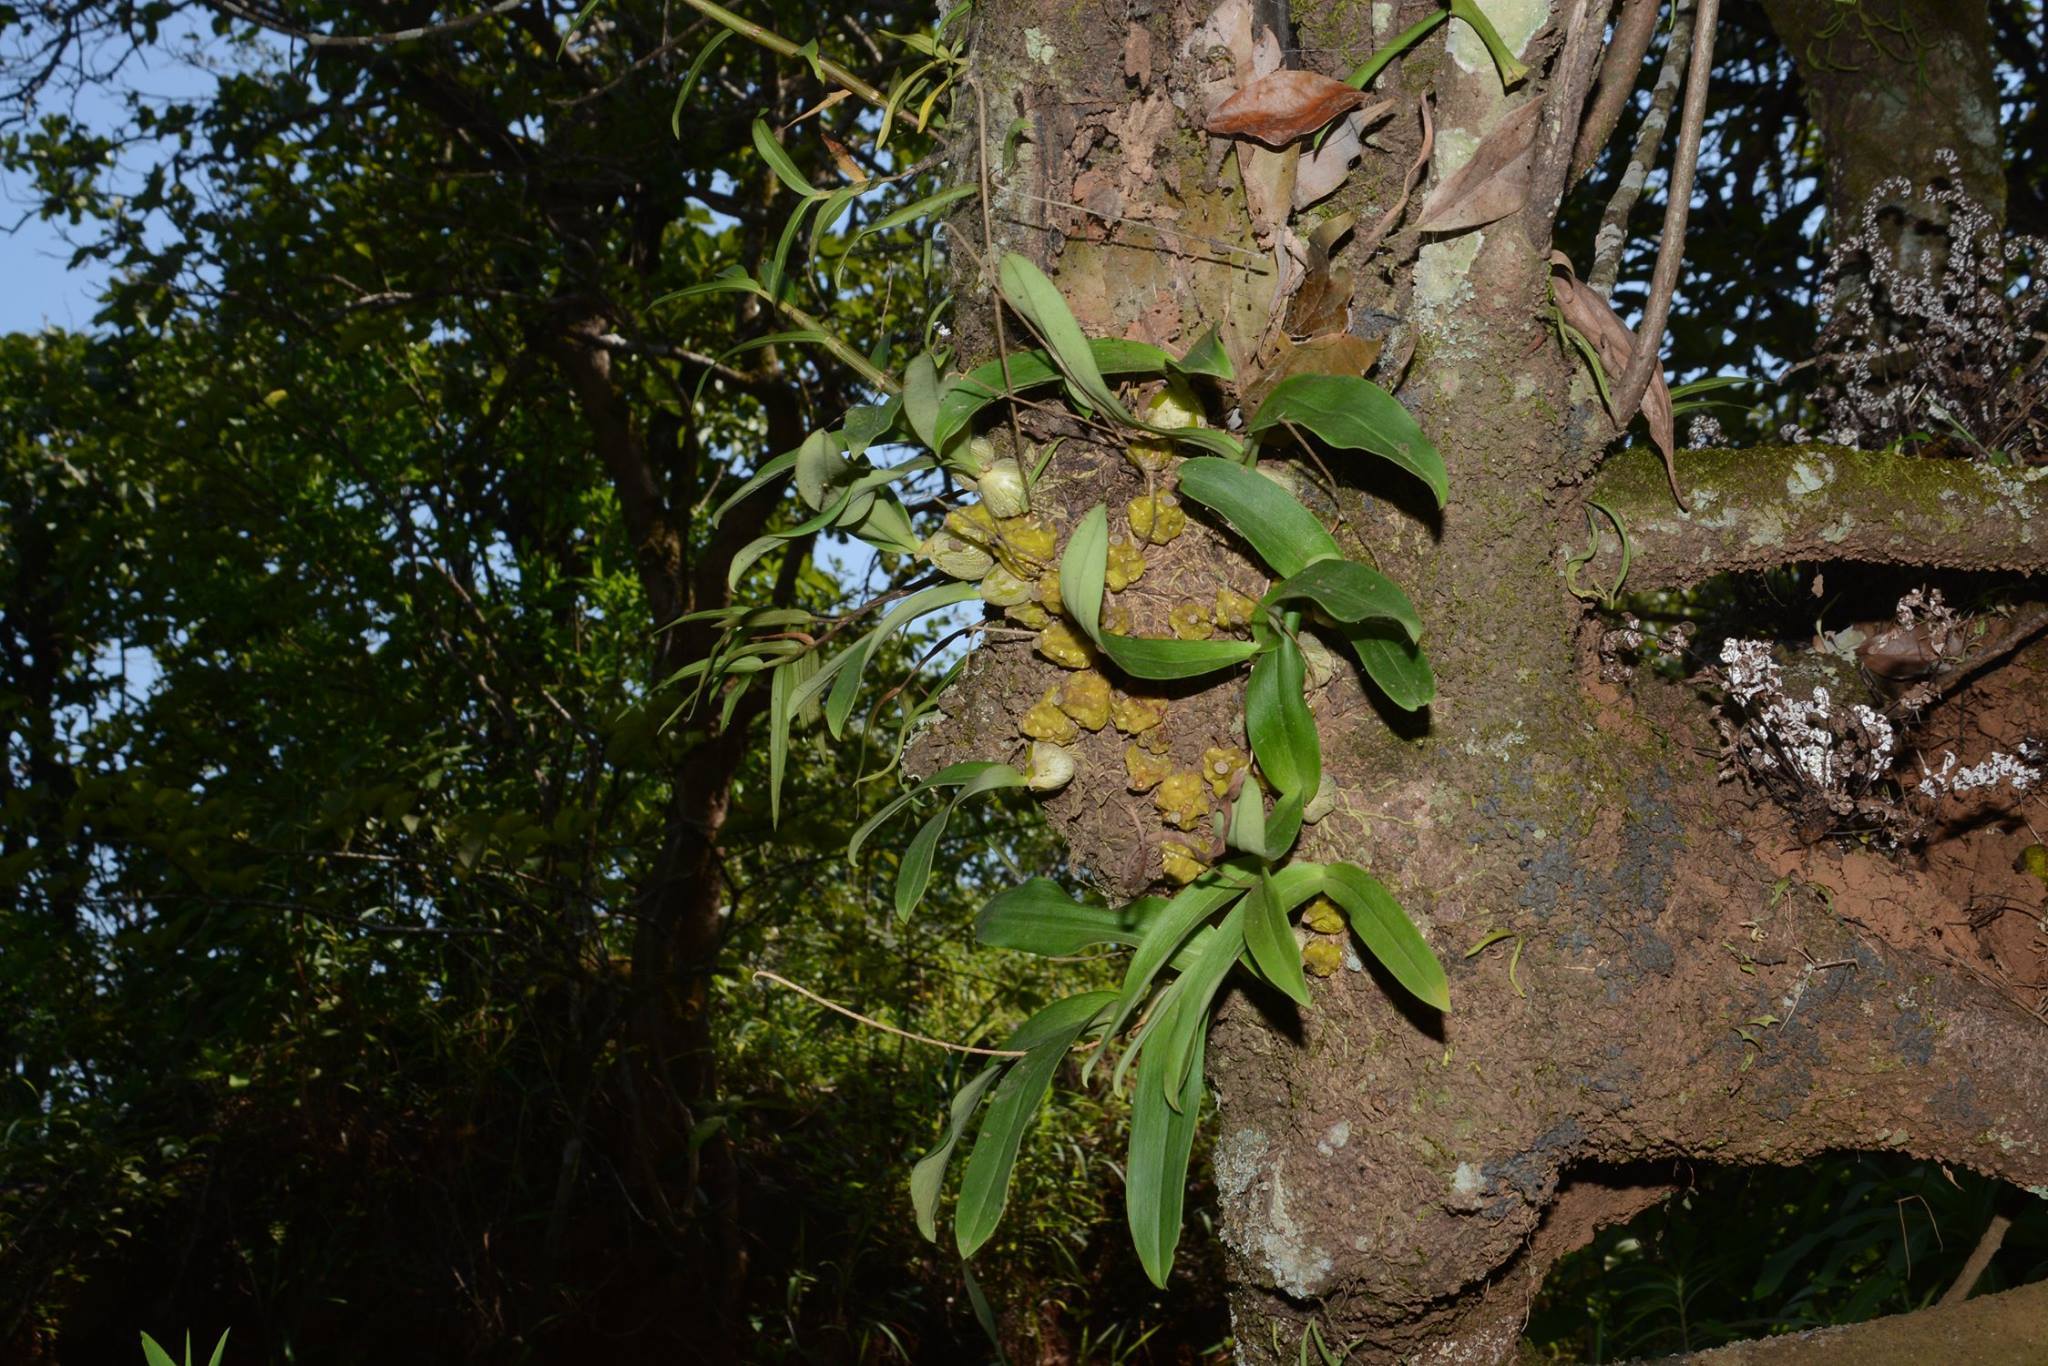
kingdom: Plantae
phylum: Tracheophyta
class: Liliopsida
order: Asparagales
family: Orchidaceae
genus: Bulbophyllum
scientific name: Bulbophyllum fimbriatum
